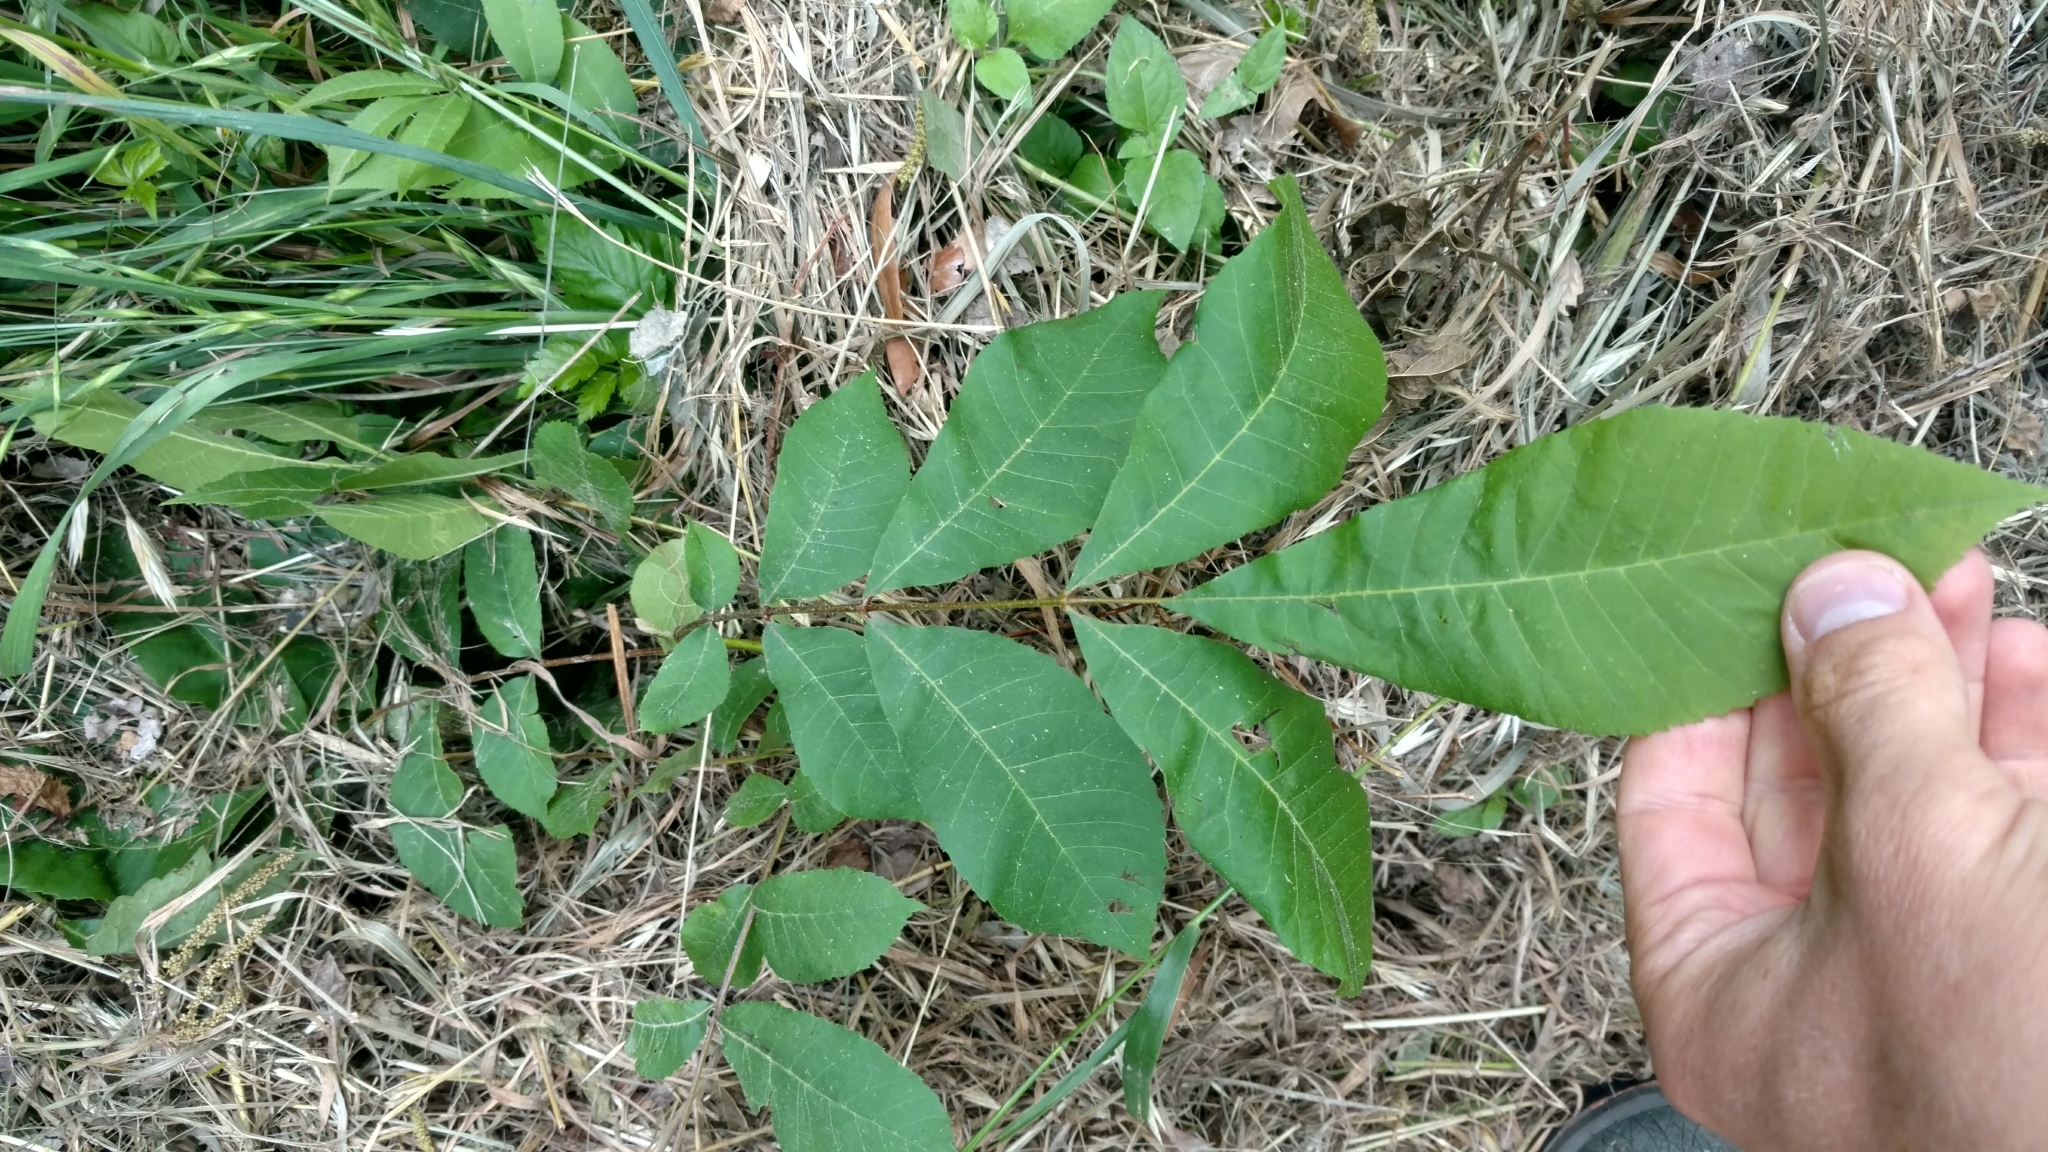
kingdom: Plantae
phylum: Tracheophyta
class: Magnoliopsida
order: Fagales
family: Juglandaceae
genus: Carya
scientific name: Carya illinoinensis
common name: Pecan
